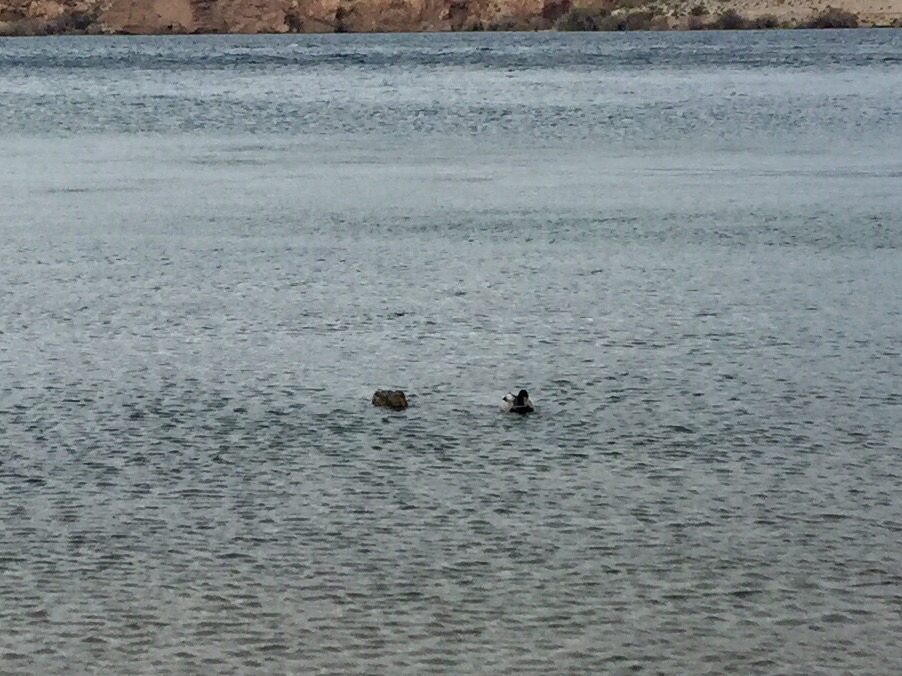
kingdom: Animalia
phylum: Chordata
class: Aves
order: Anseriformes
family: Anatidae
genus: Anas
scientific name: Anas platyrhynchos
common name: Mallard
